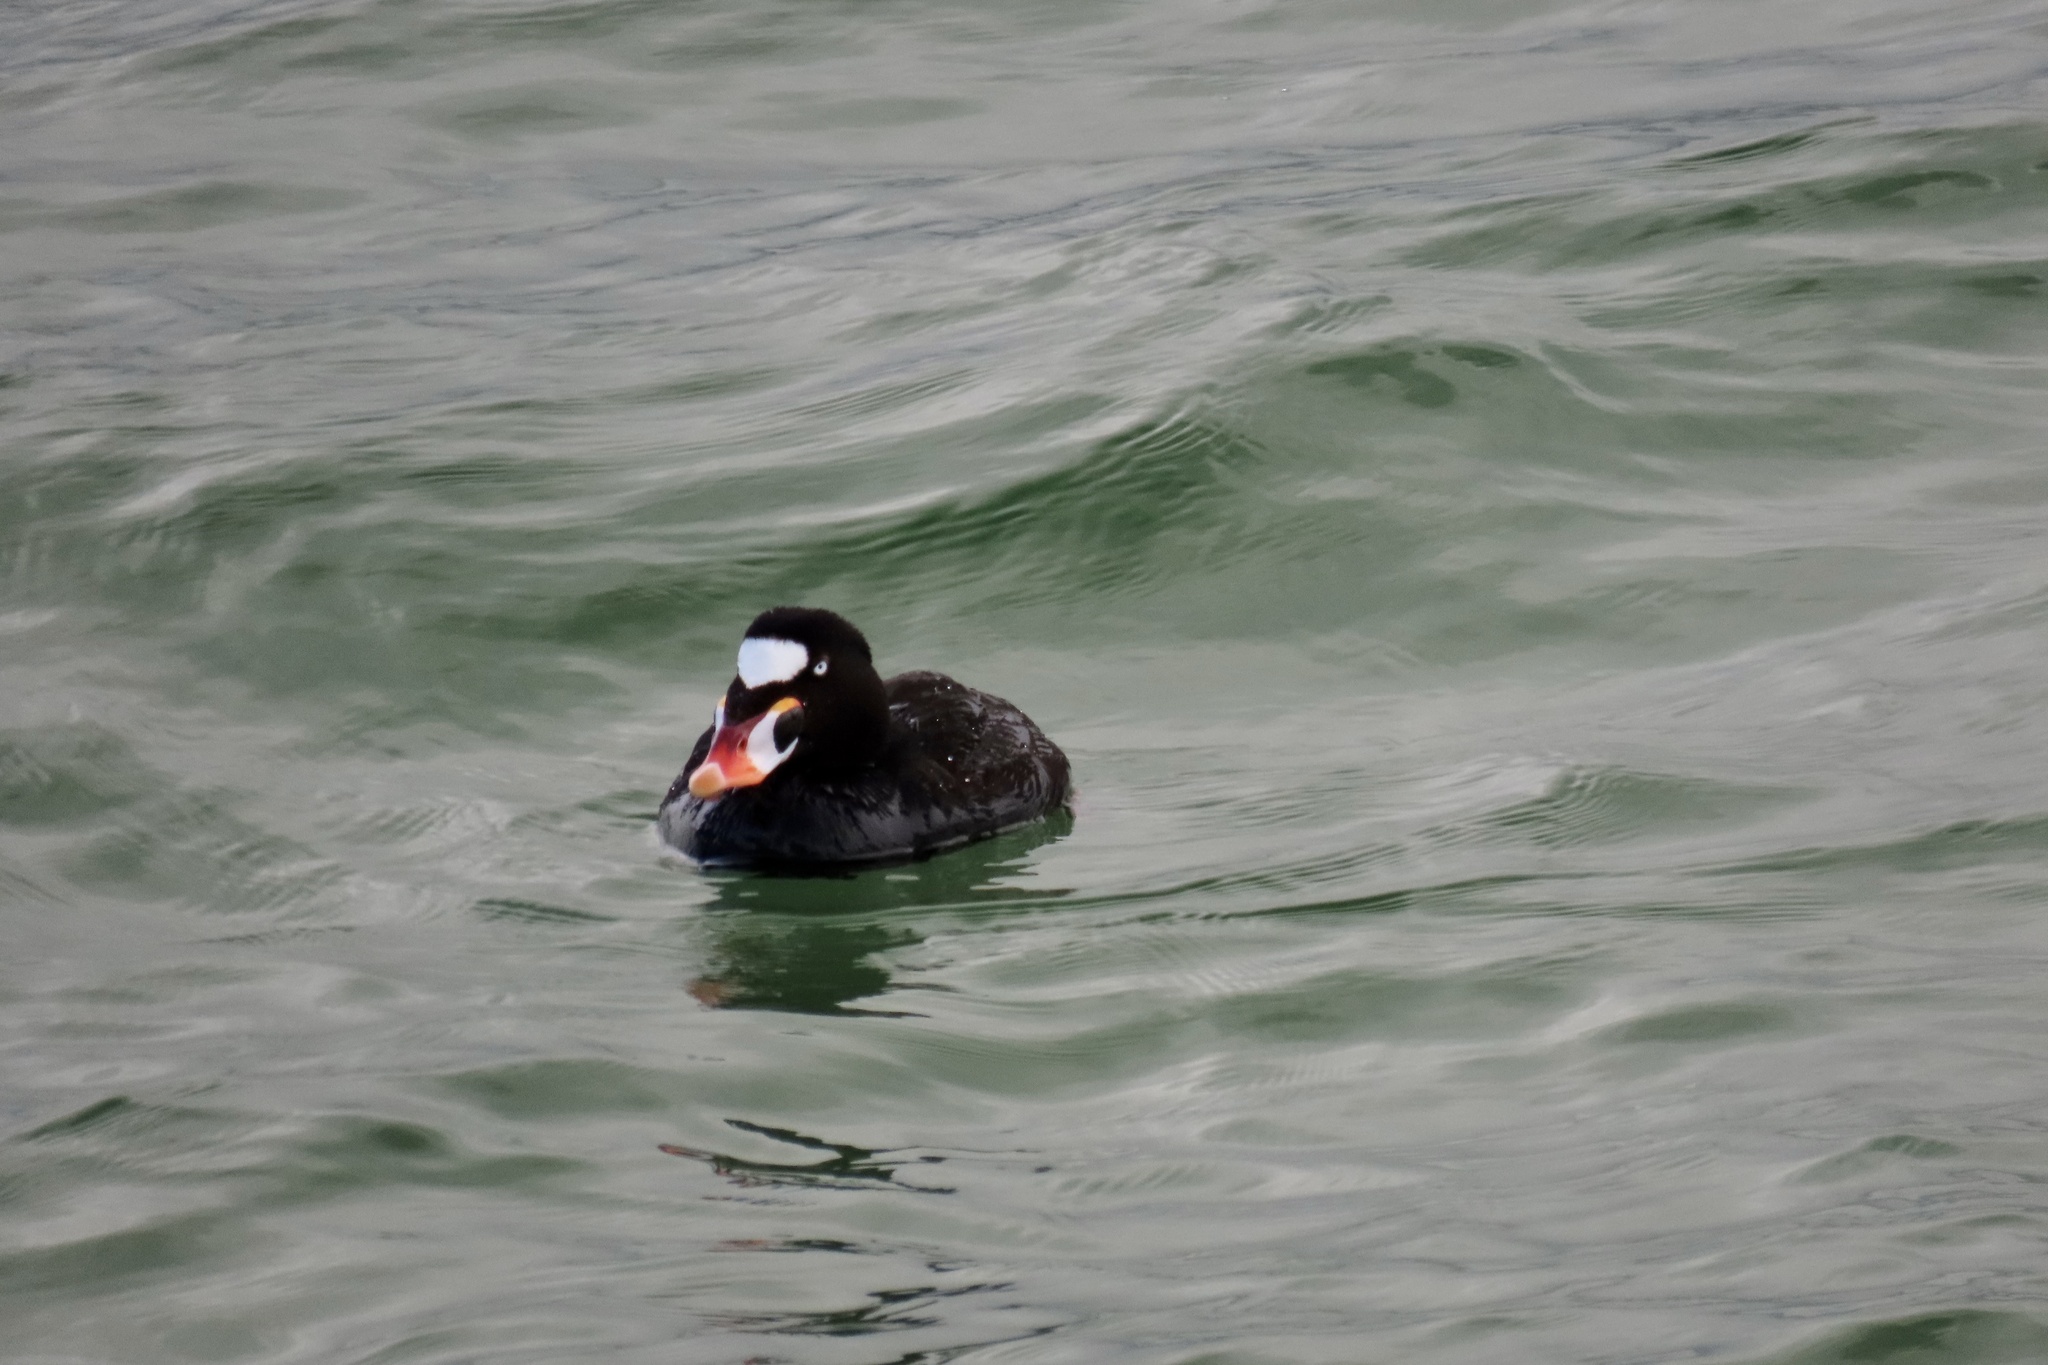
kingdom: Animalia
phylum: Chordata
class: Aves
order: Anseriformes
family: Anatidae
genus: Melanitta
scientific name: Melanitta perspicillata
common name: Surf scoter
